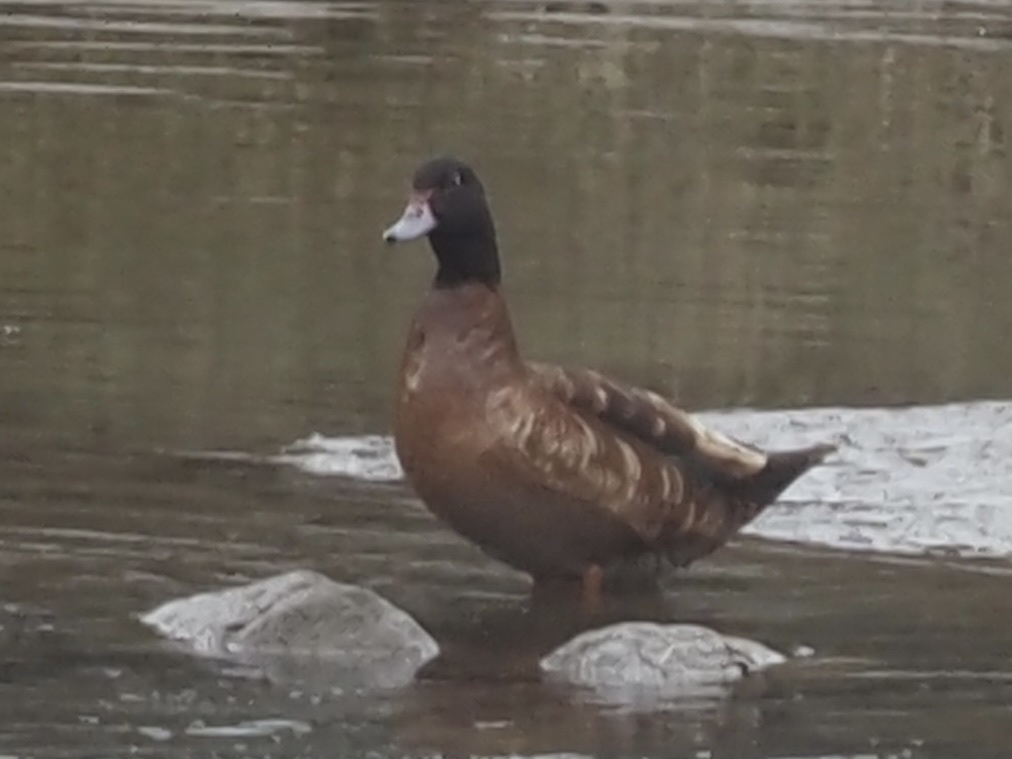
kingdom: Animalia
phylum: Chordata
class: Aves
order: Anseriformes
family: Anatidae
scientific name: Anatidae
